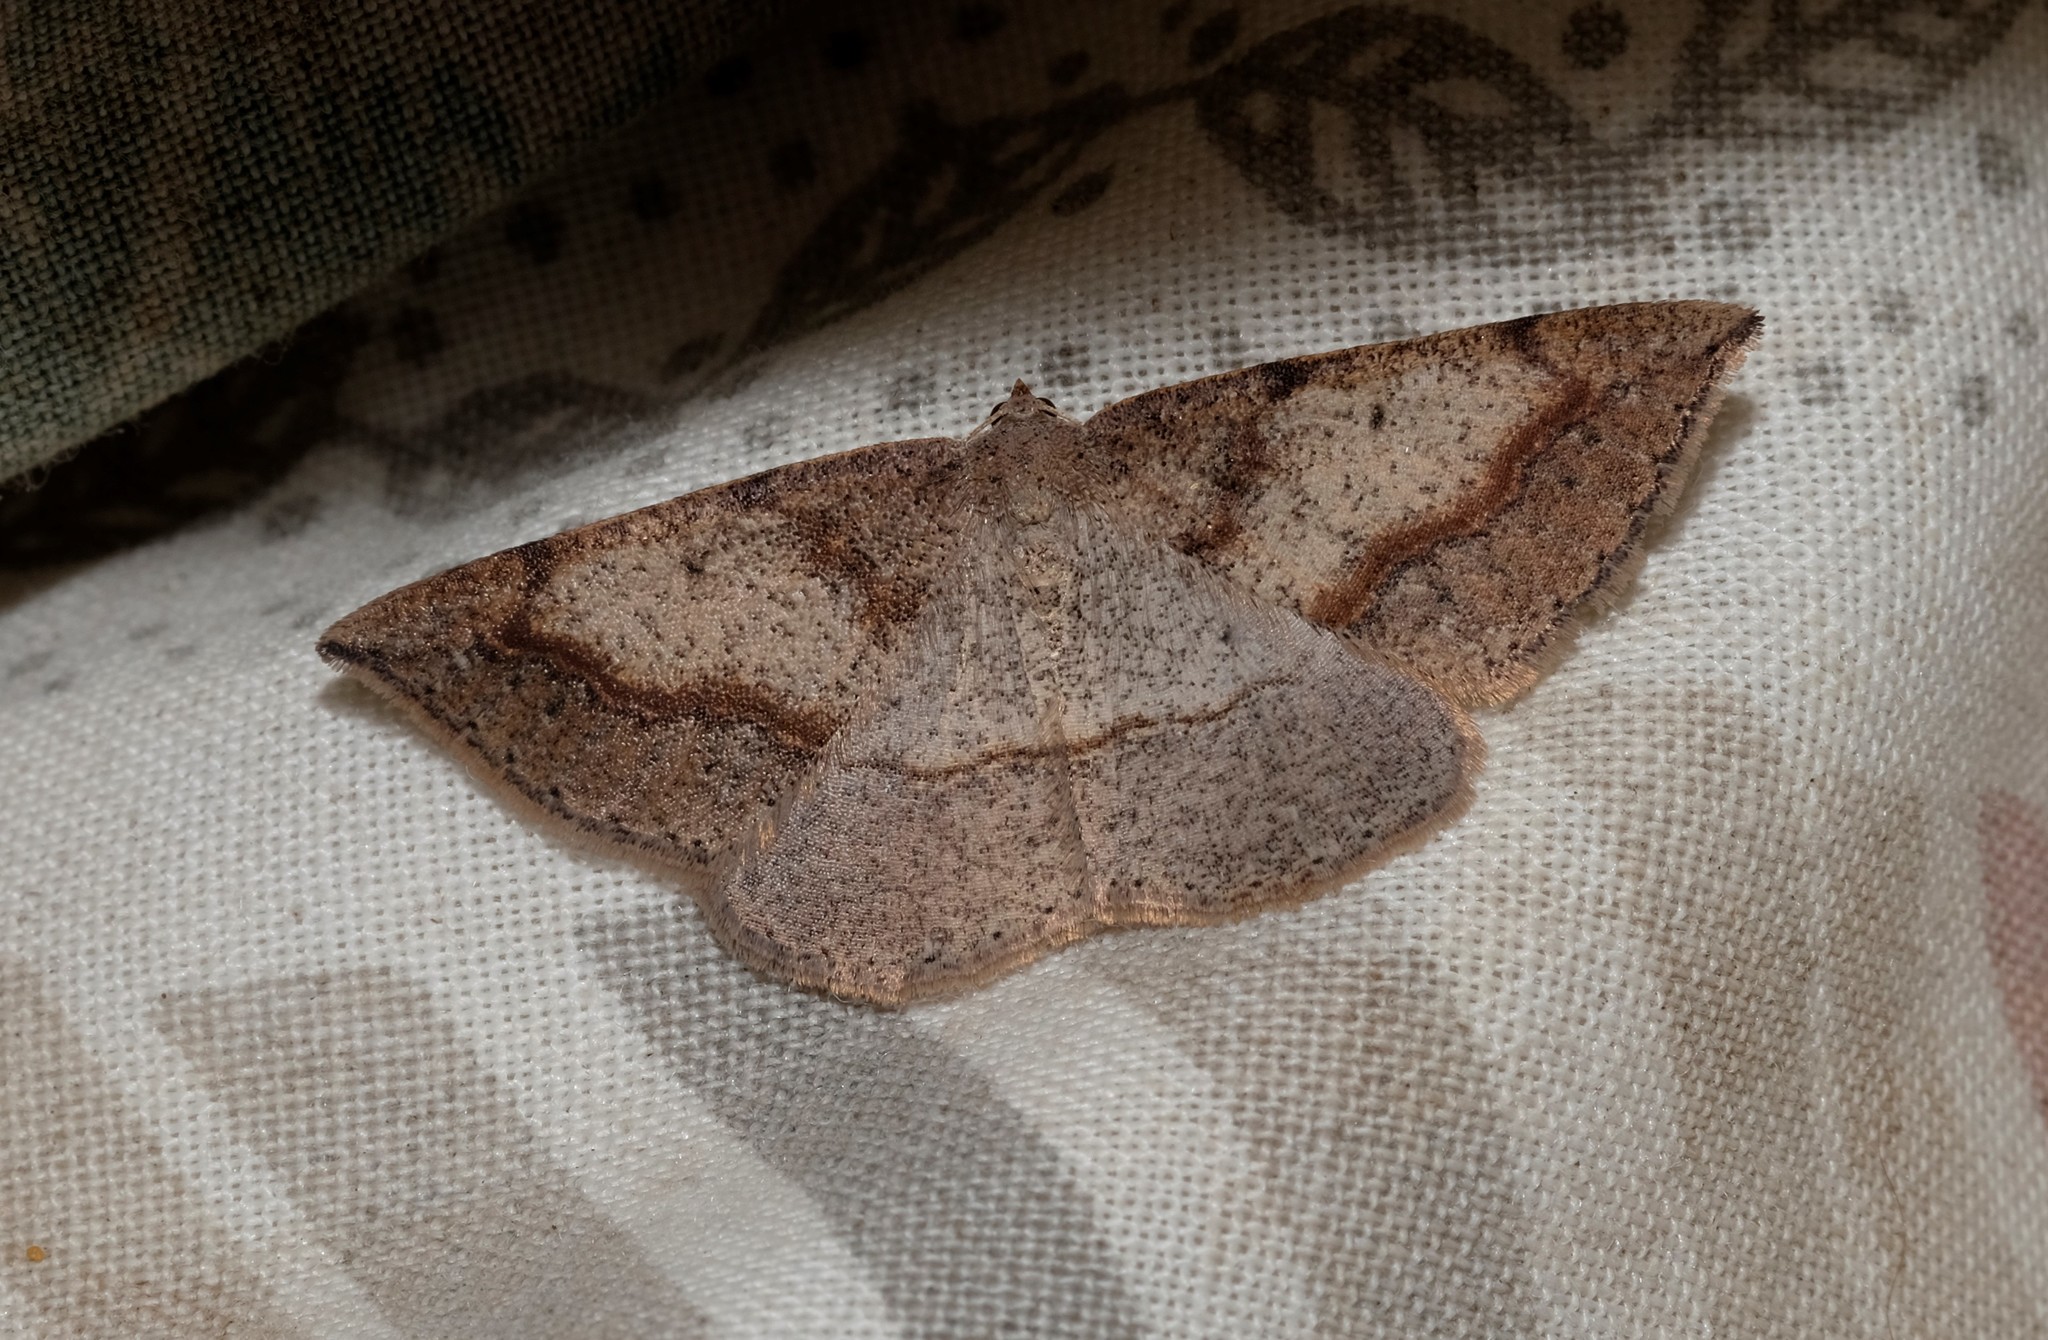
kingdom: Animalia
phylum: Arthropoda
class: Insecta
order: Lepidoptera
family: Geometridae
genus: Taxeotis
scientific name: Taxeotis perlinearia
